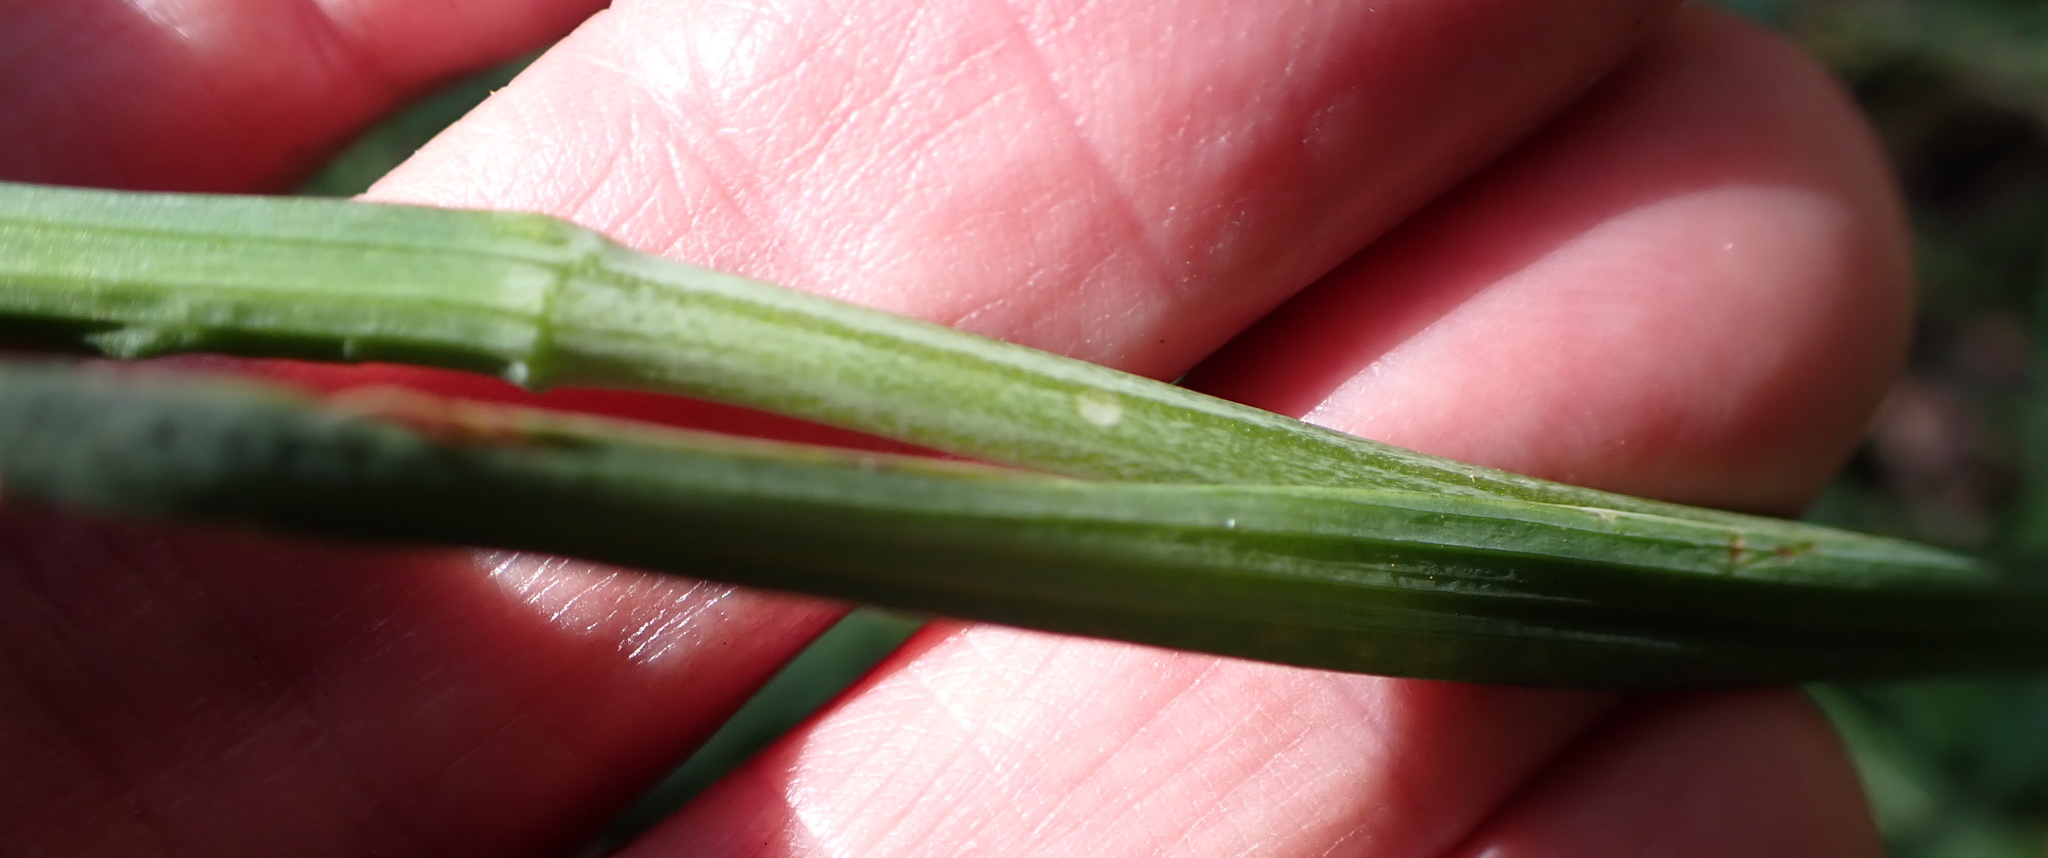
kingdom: Plantae
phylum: Tracheophyta
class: Liliopsida
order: Asparagales
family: Iridaceae
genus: Hesperantha
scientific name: Hesperantha coccinea
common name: River-lily
